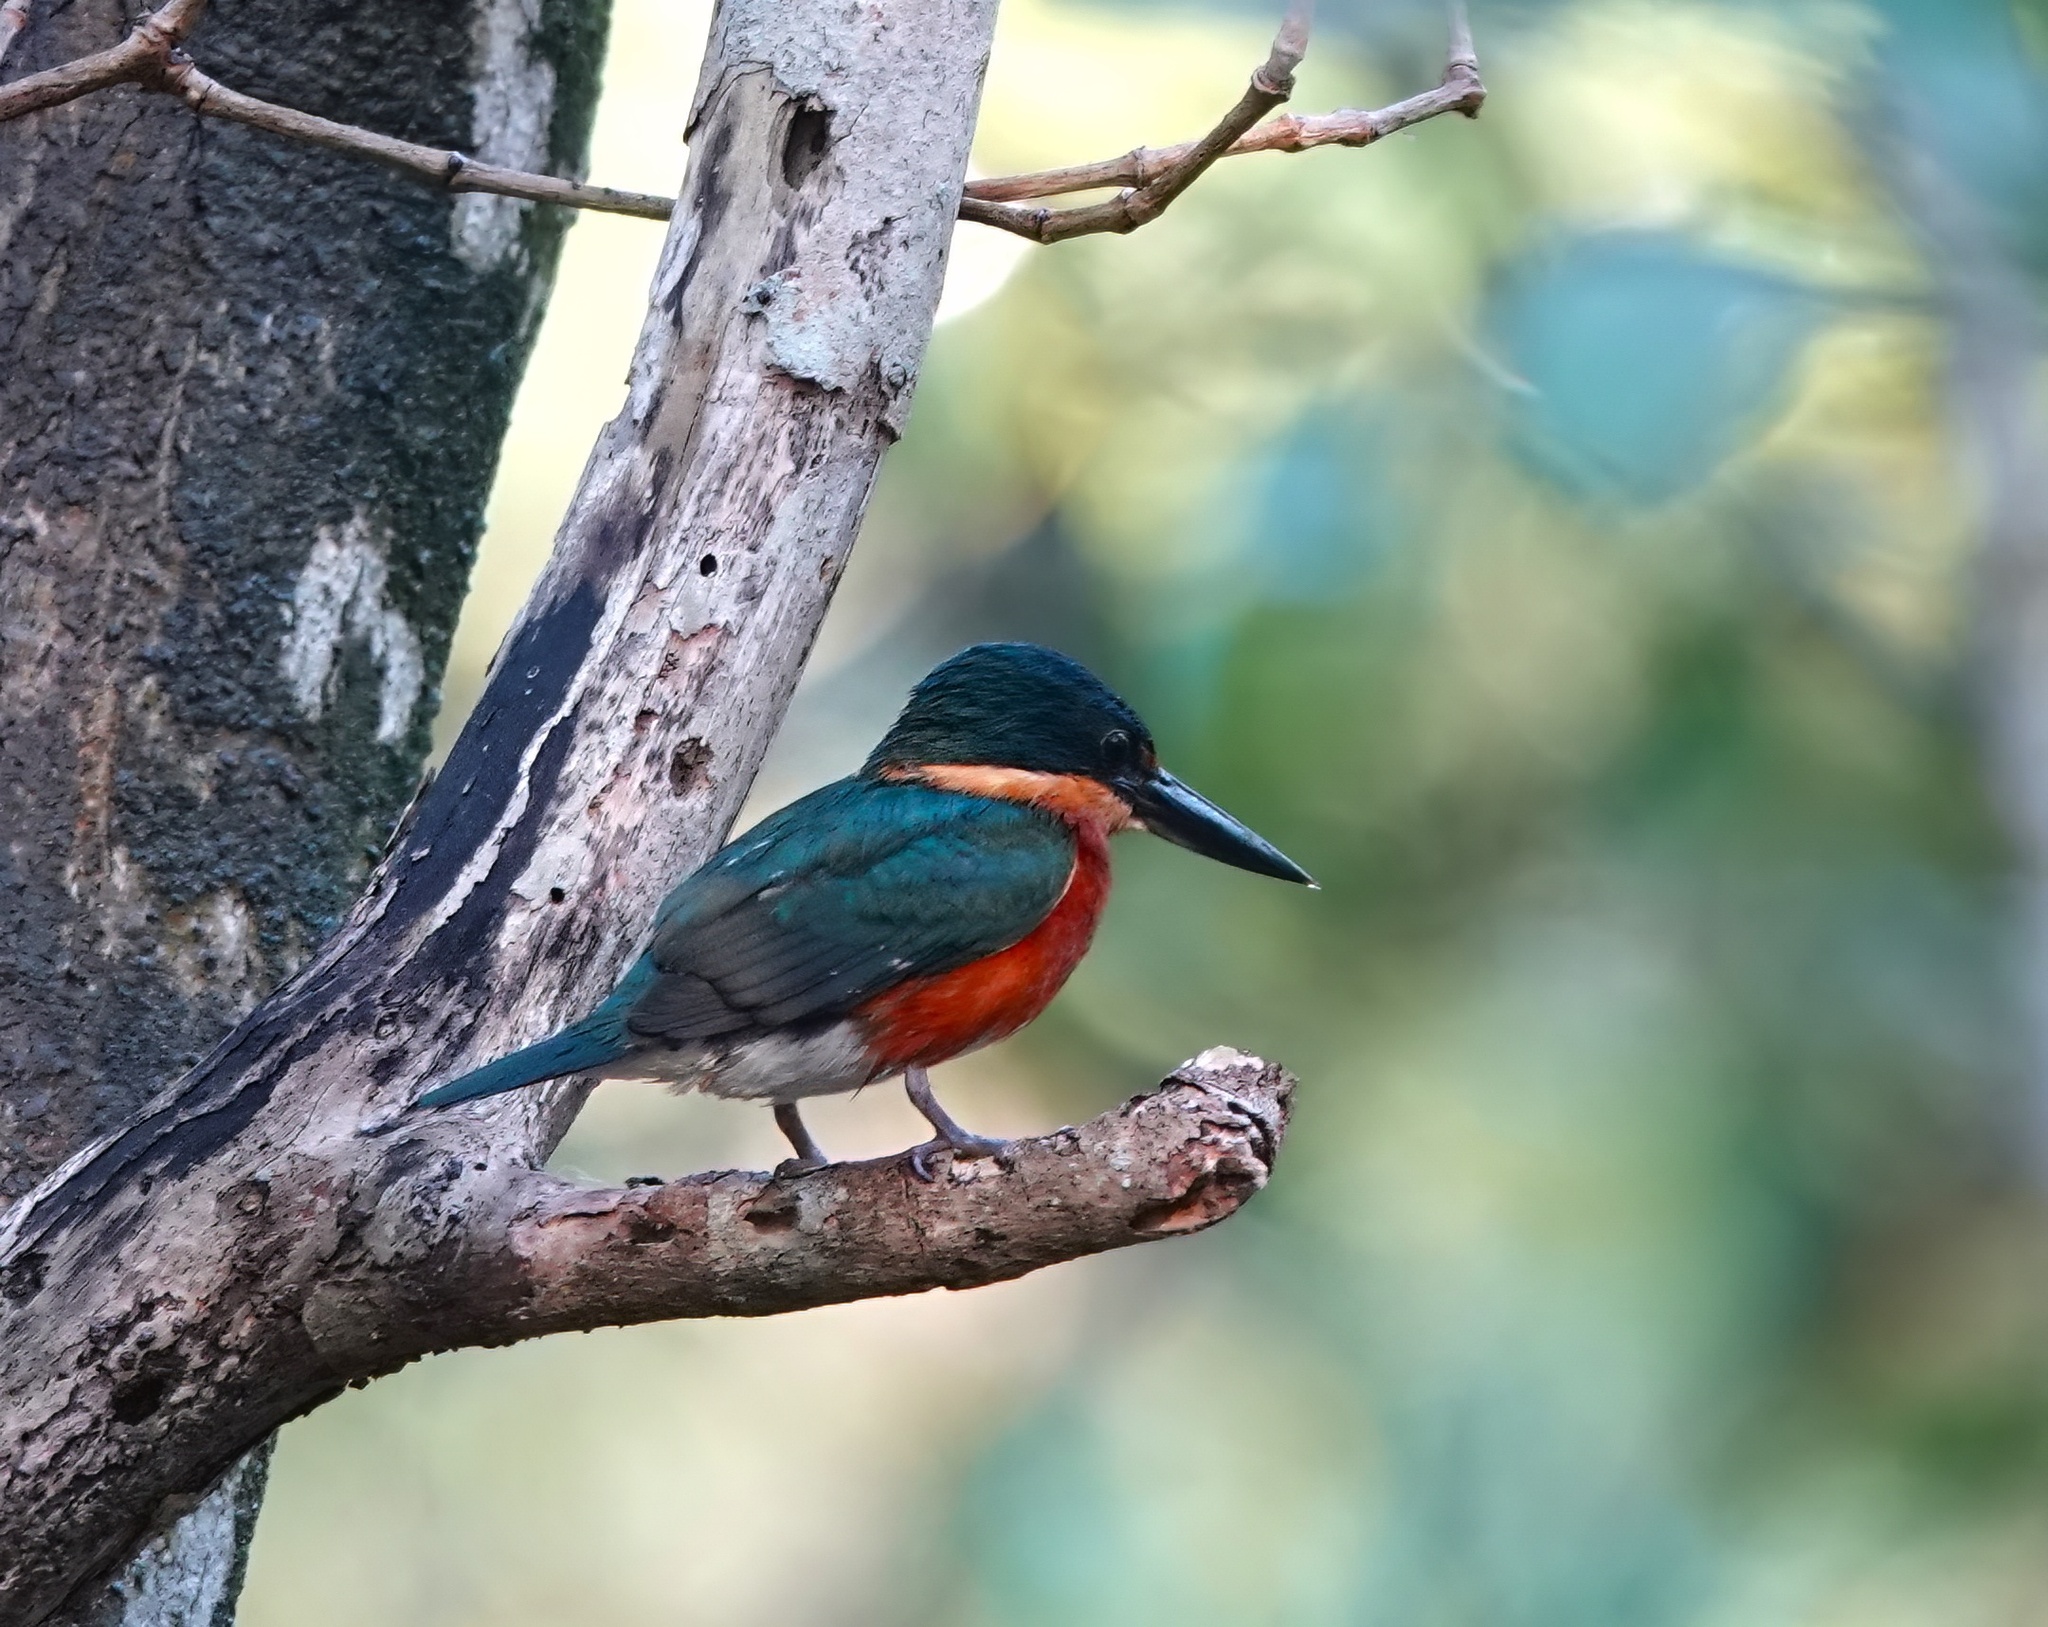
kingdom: Animalia
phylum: Chordata
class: Aves
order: Coraciiformes
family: Alcedinidae
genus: Chloroceryle
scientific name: Chloroceryle aenea
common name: American pygmy kingfisher
